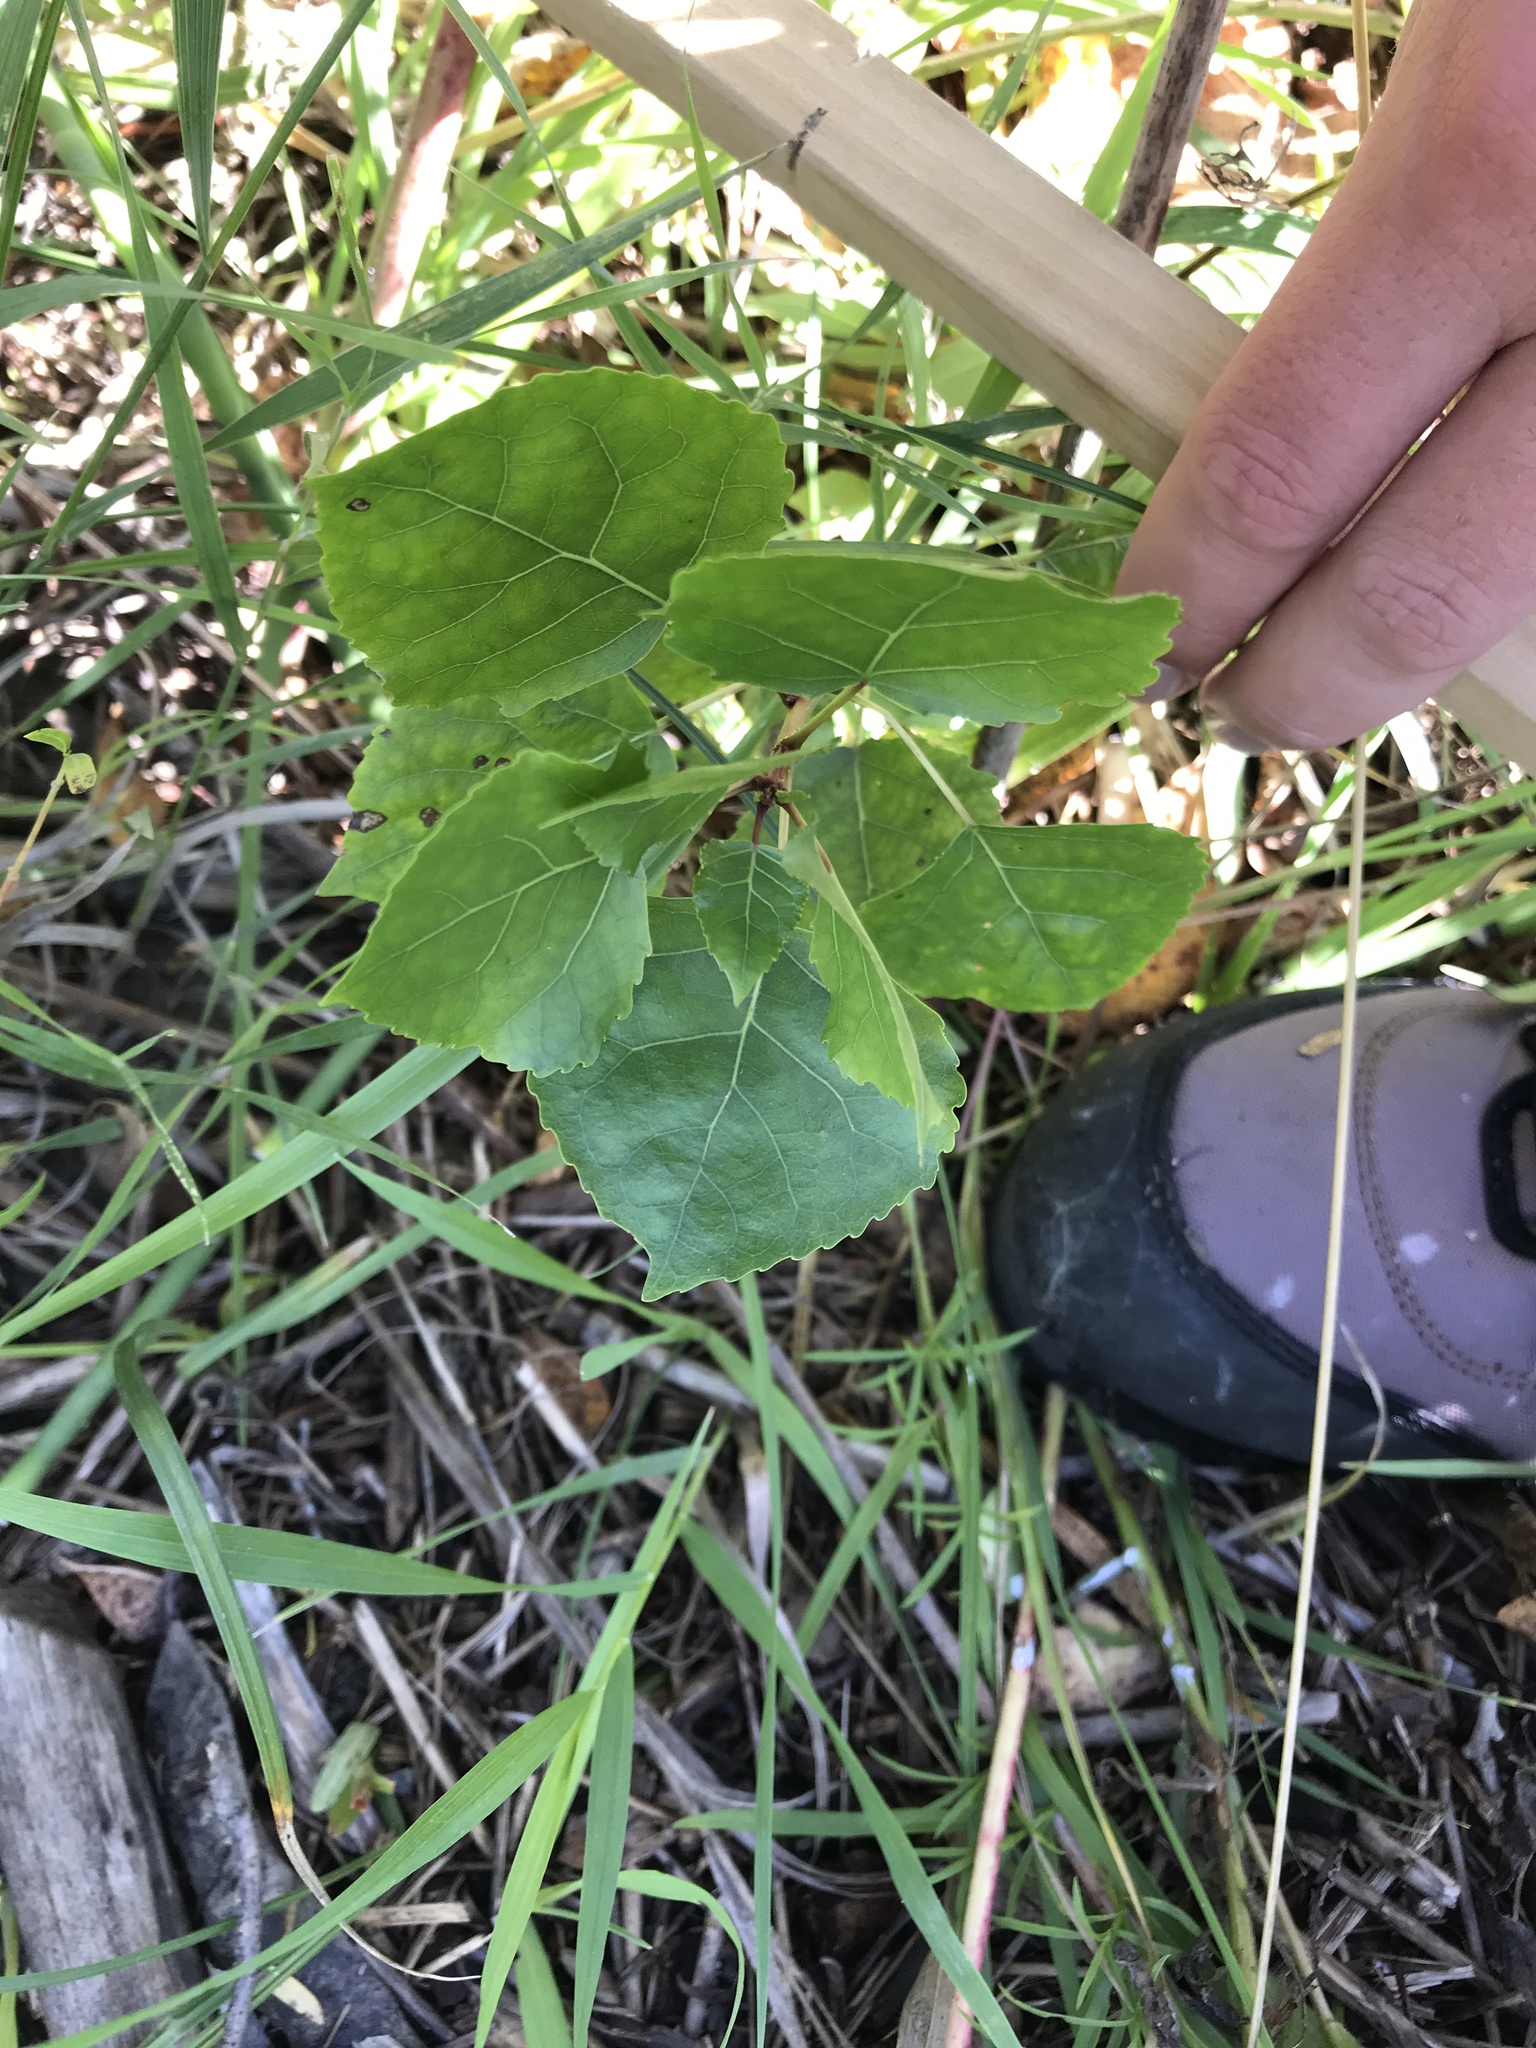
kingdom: Plantae
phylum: Tracheophyta
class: Magnoliopsida
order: Malpighiales
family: Salicaceae
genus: Populus
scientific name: Populus deltoides
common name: Eastern cottonwood
